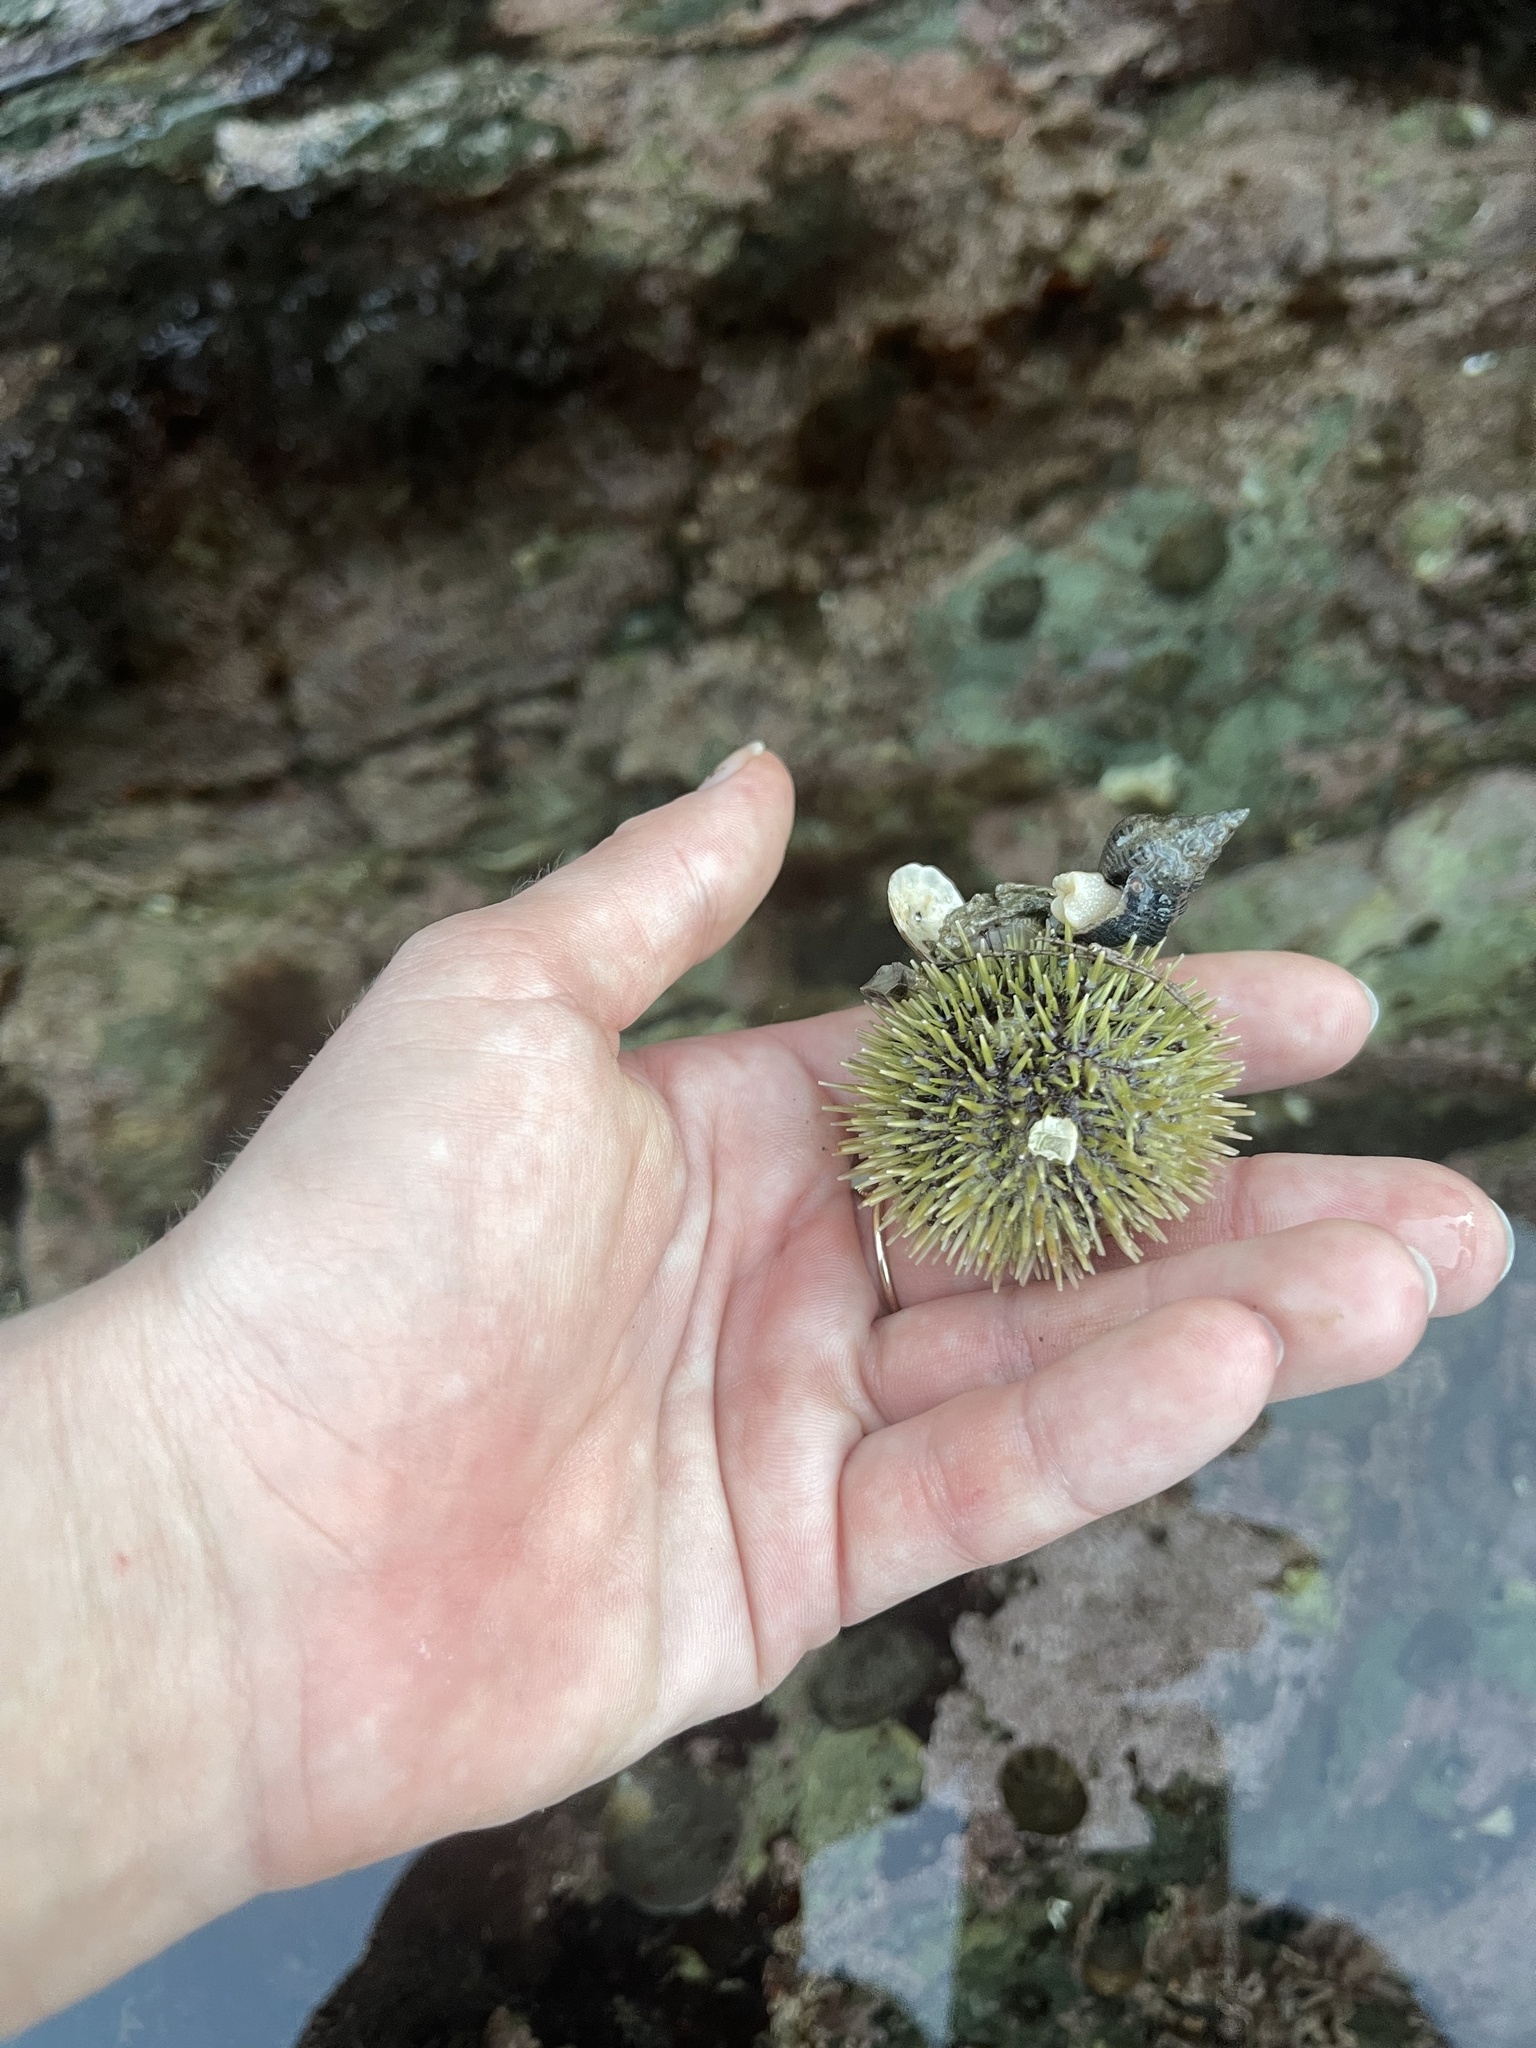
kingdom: Animalia
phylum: Echinodermata
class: Echinoidea
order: Camarodonta
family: Strongylocentrotidae
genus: Strongylocentrotus
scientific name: Strongylocentrotus droebachiensis
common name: Northern sea urchin
